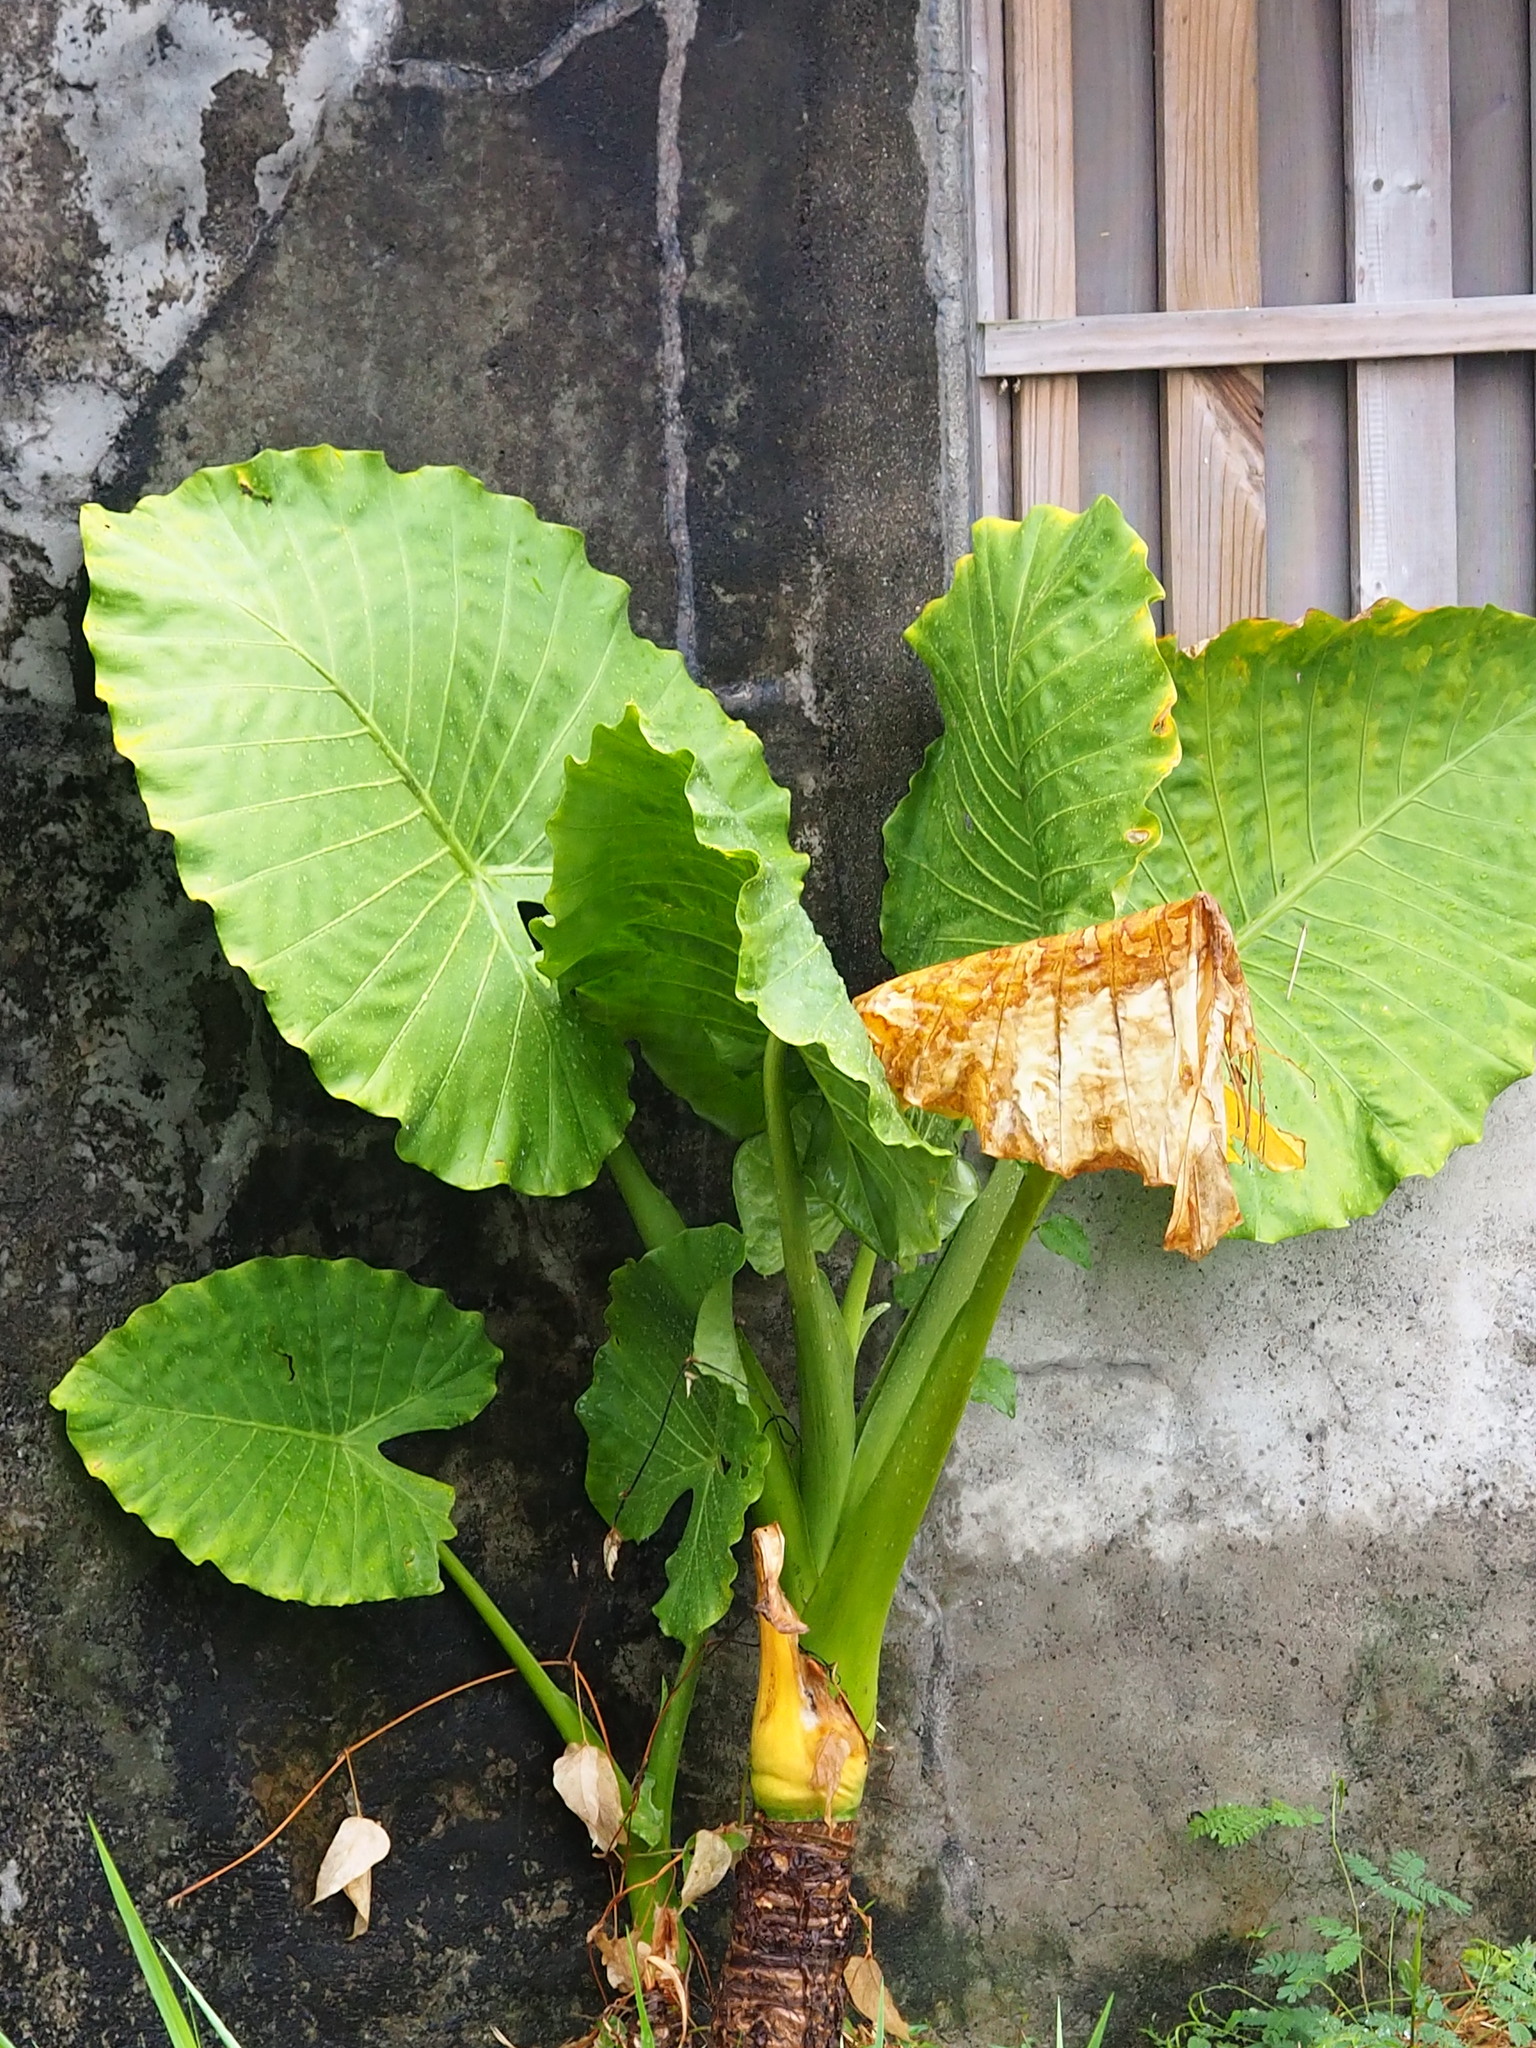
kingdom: Plantae
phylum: Tracheophyta
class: Liliopsida
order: Alismatales
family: Araceae
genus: Alocasia
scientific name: Alocasia odora
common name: Asian taro
